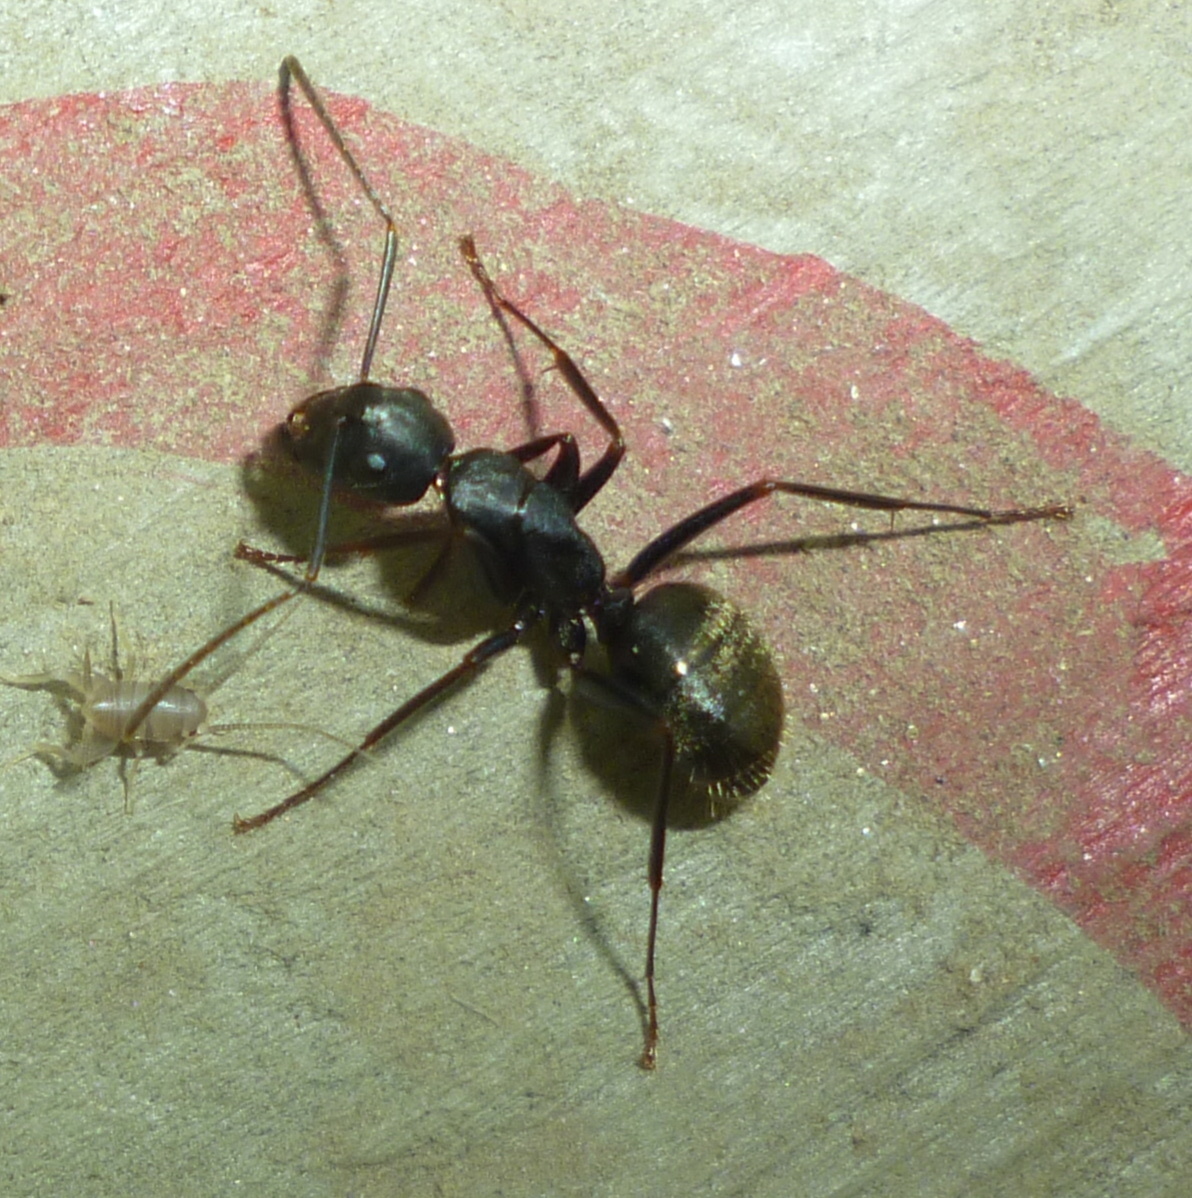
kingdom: Animalia
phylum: Arthropoda
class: Insecta
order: Hymenoptera
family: Formicidae
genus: Camponotus
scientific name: Camponotus pennsylvanicus
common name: Black carpenter ant
